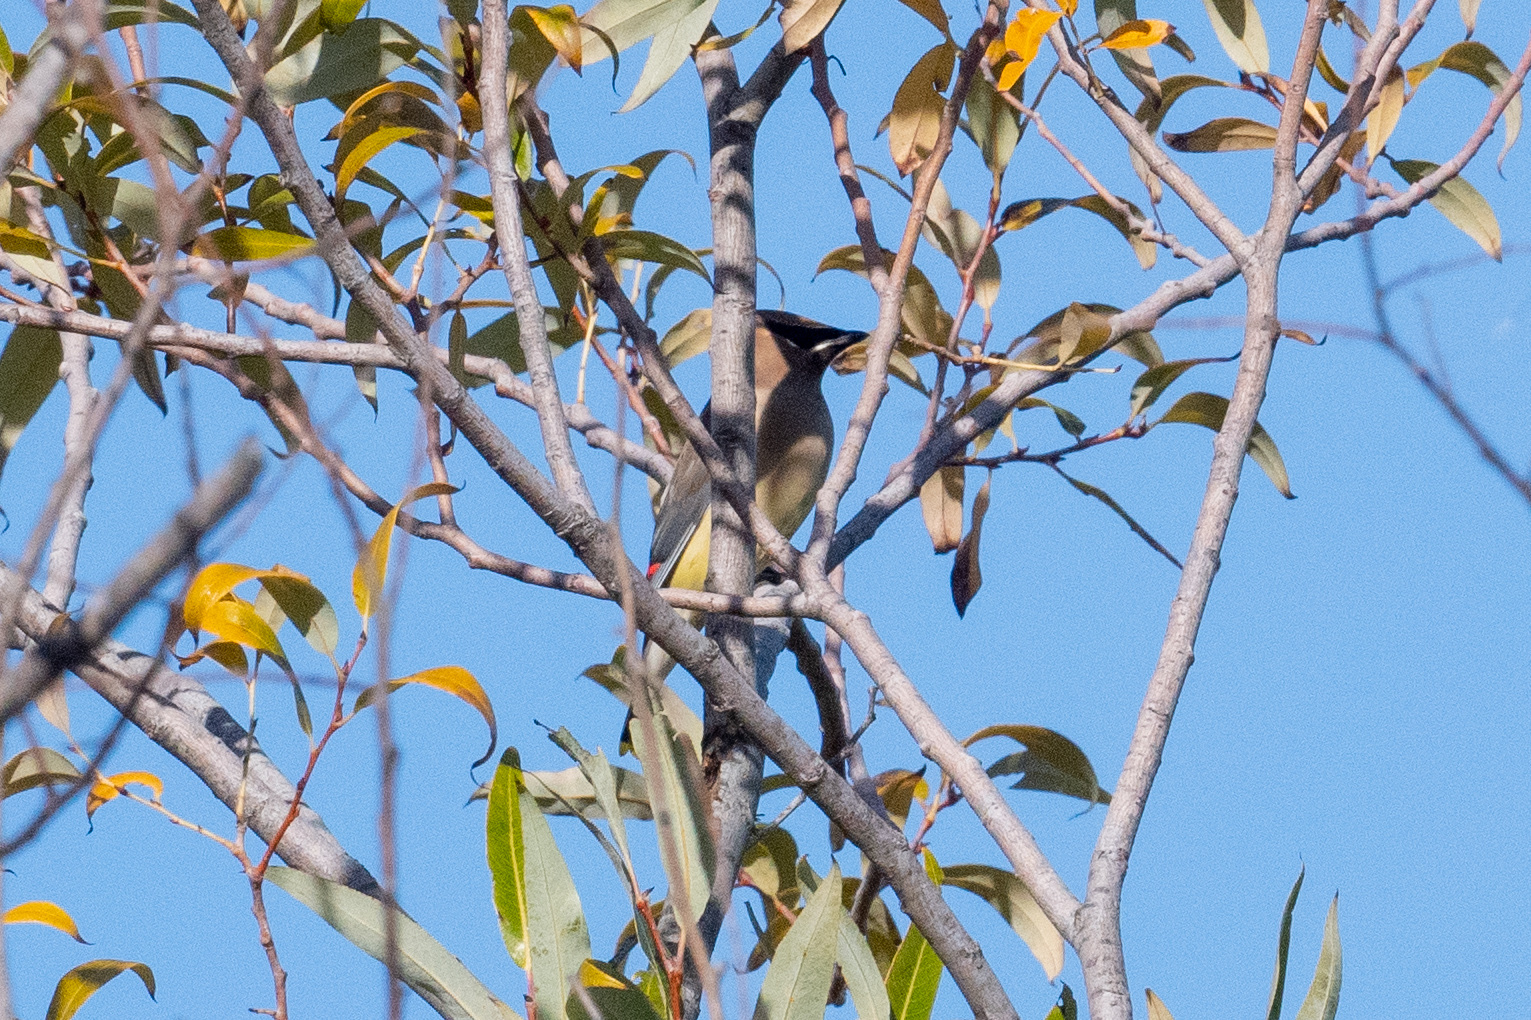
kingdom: Animalia
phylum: Chordata
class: Aves
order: Passeriformes
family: Bombycillidae
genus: Bombycilla
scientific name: Bombycilla cedrorum
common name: Cedar waxwing
